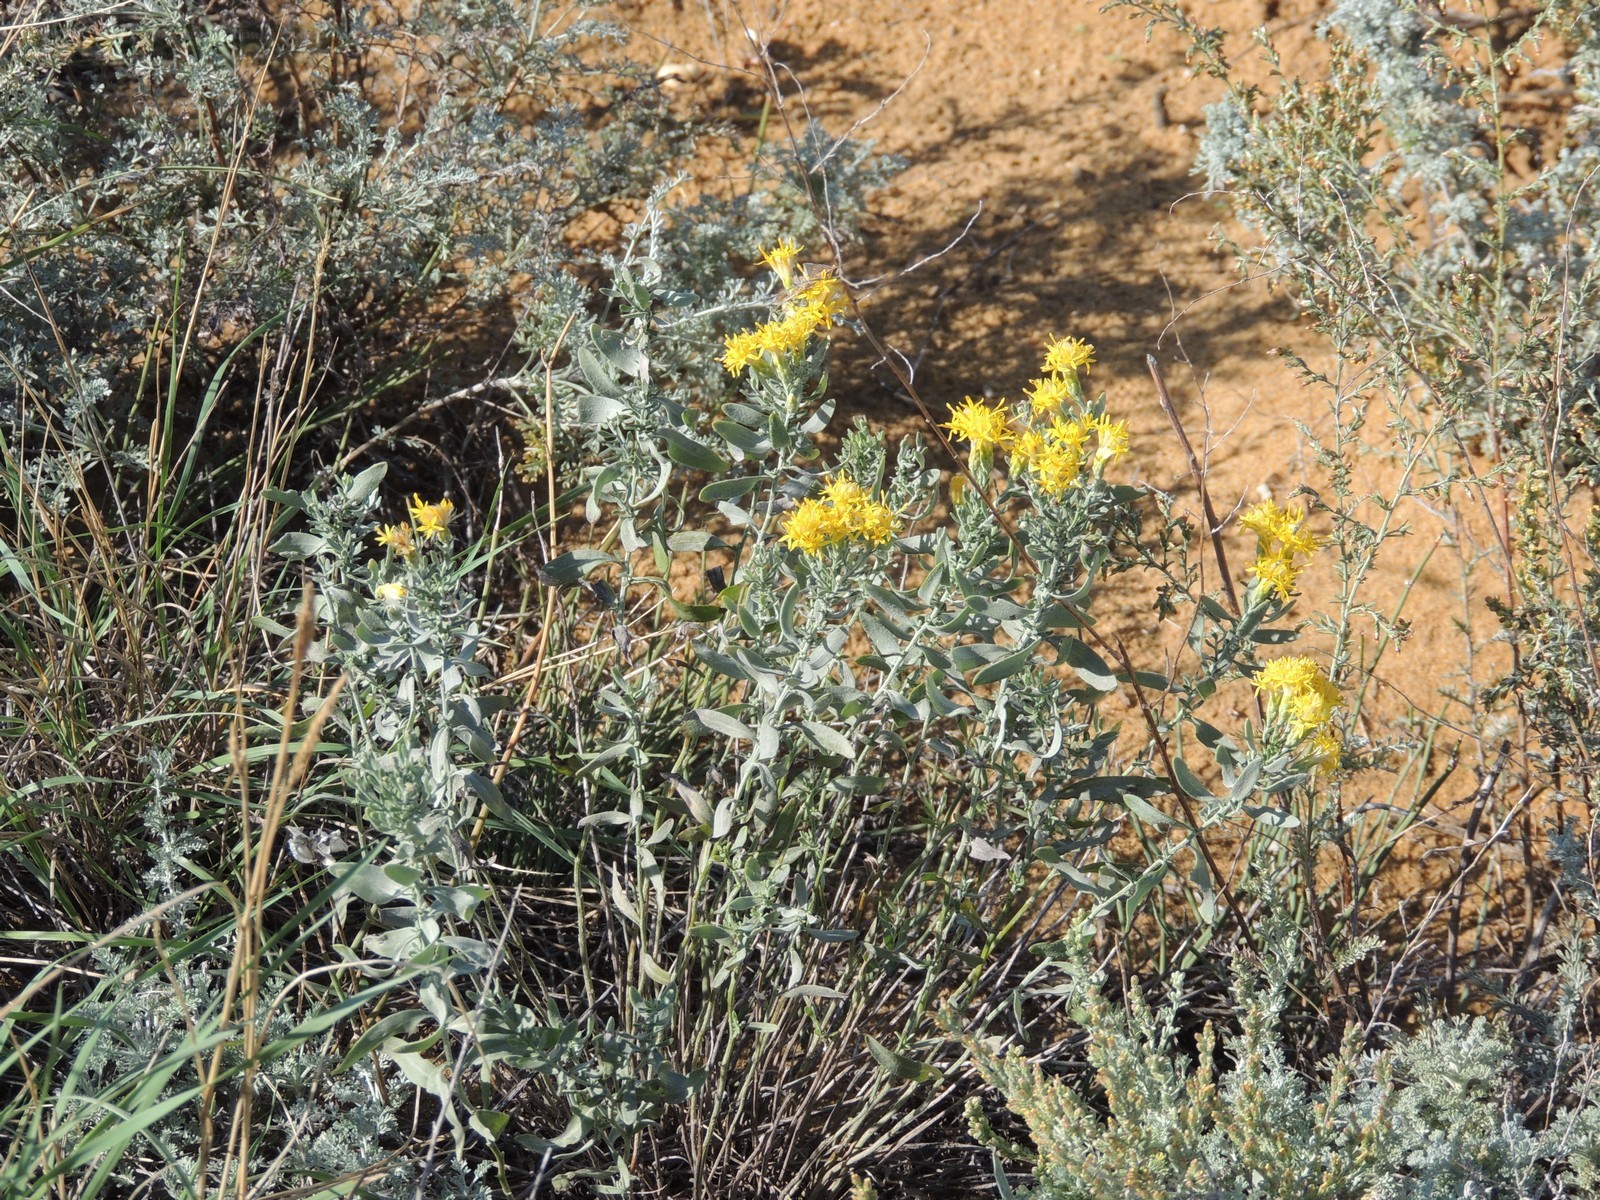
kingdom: Plantae
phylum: Tracheophyta
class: Magnoliopsida
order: Asterales
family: Asteraceae
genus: Galatella
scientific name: Galatella villosa
